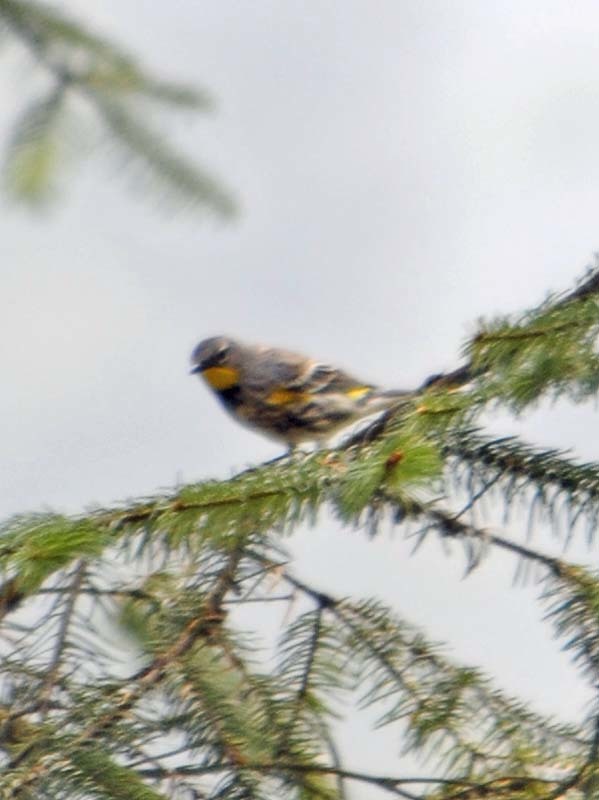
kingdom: Animalia
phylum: Chordata
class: Aves
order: Passeriformes
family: Parulidae
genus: Setophaga
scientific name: Setophaga auduboni
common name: Audubon's warbler
